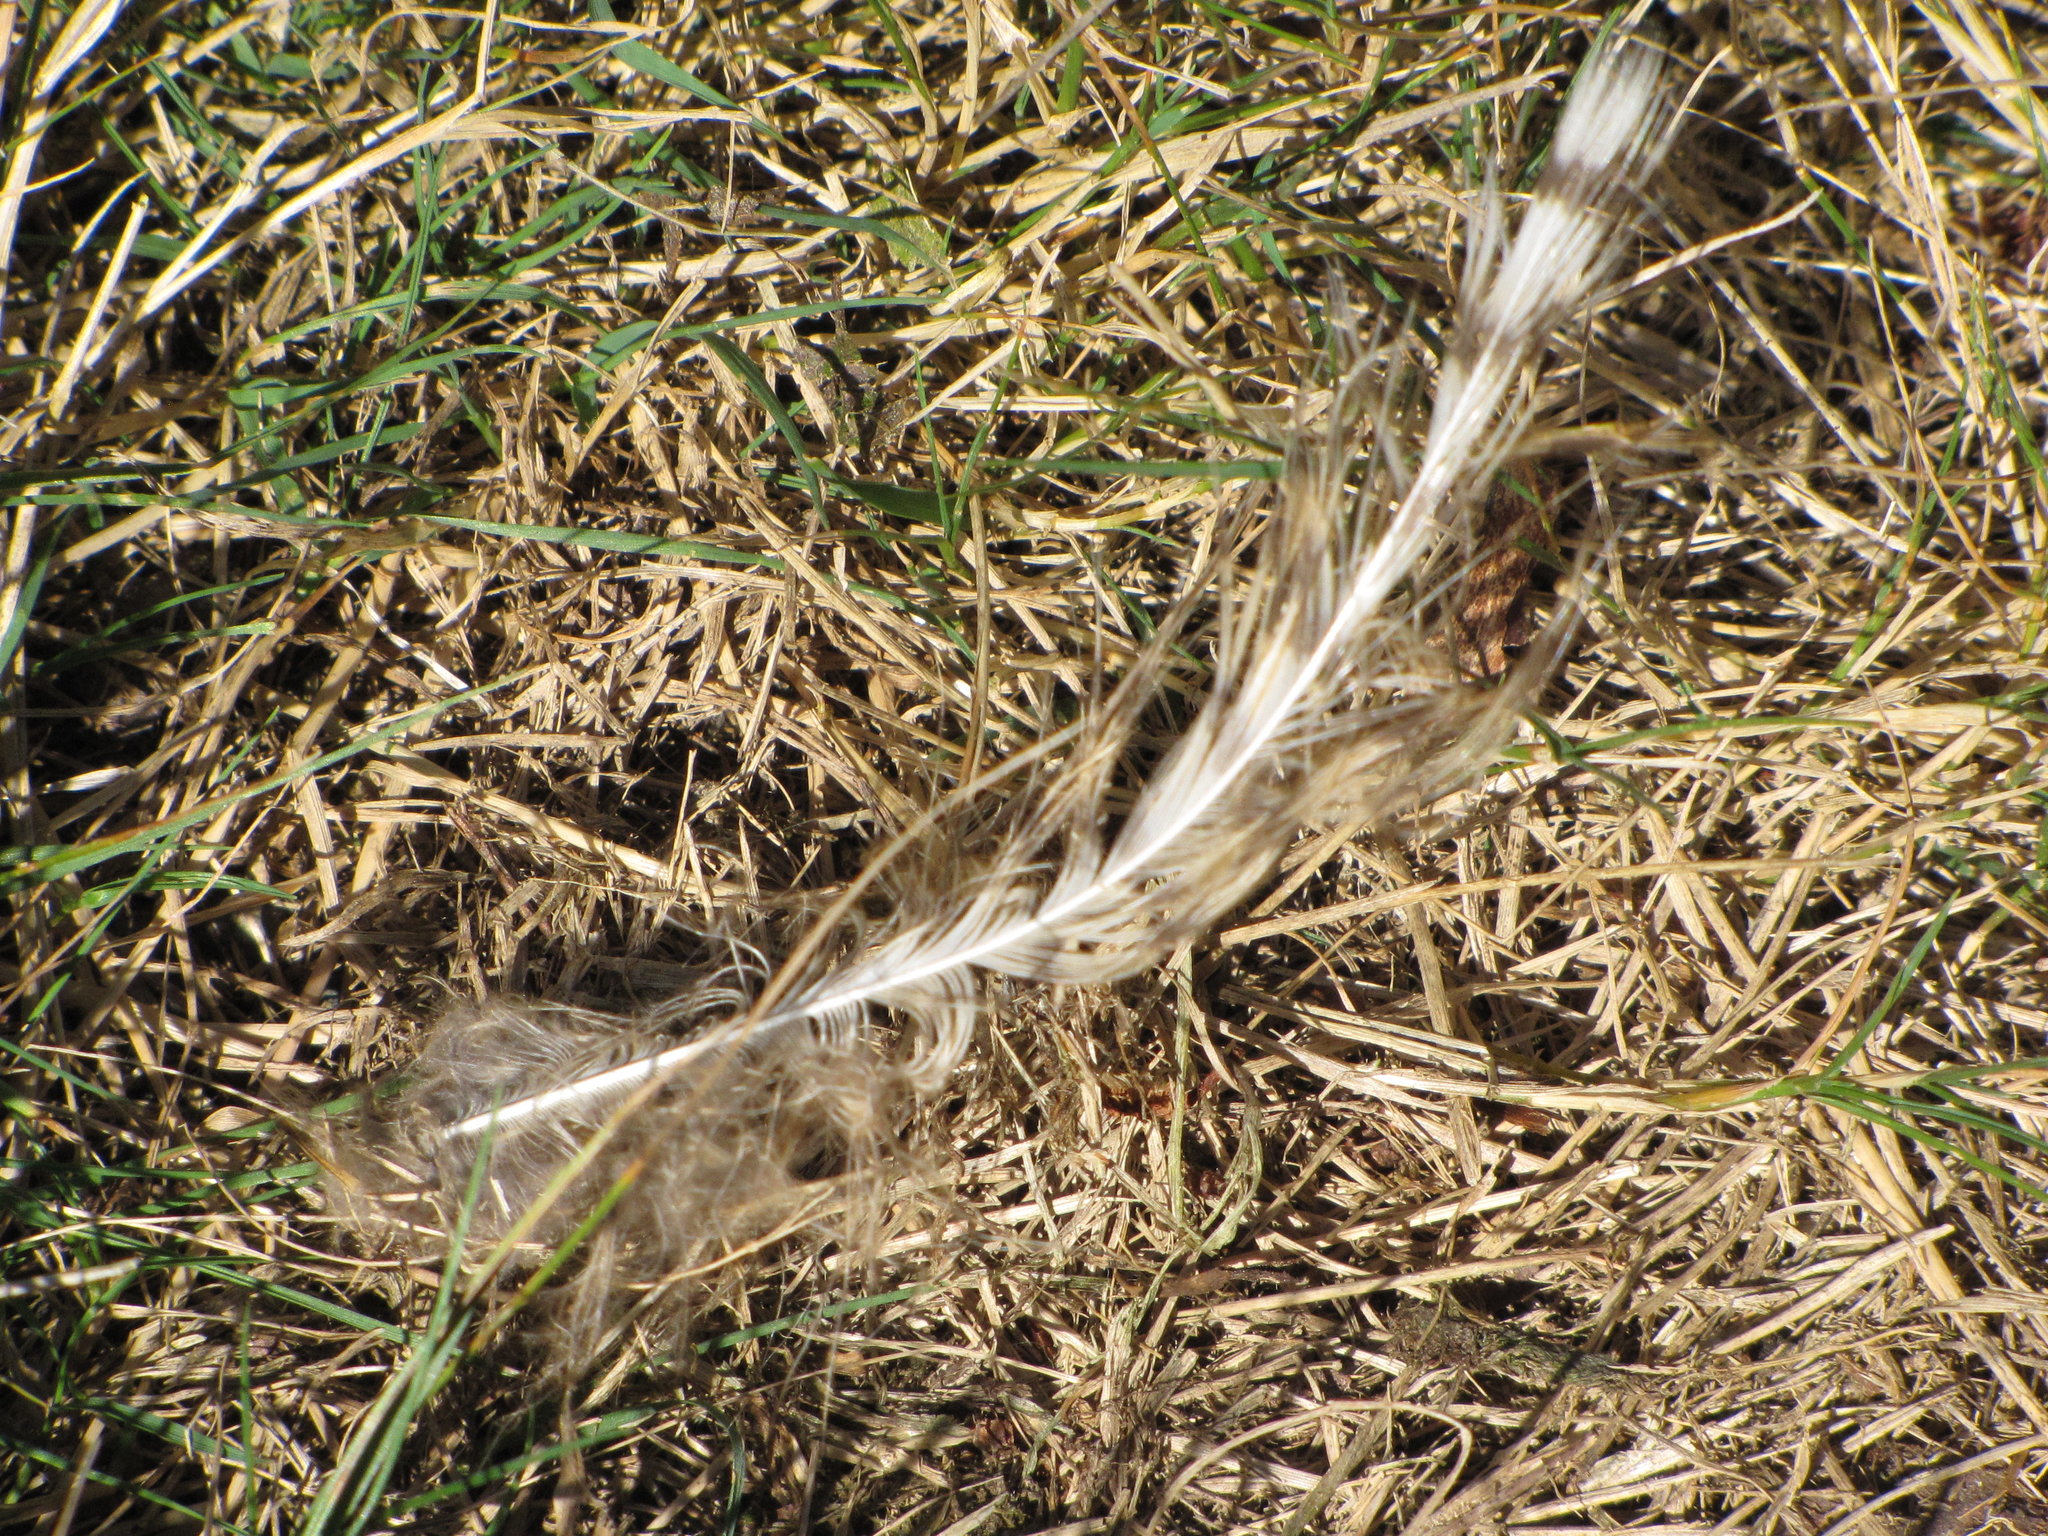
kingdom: Animalia
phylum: Chordata
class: Aves
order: Strigiformes
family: Strigidae
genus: Bubo
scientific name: Bubo virginianus
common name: Great horned owl
